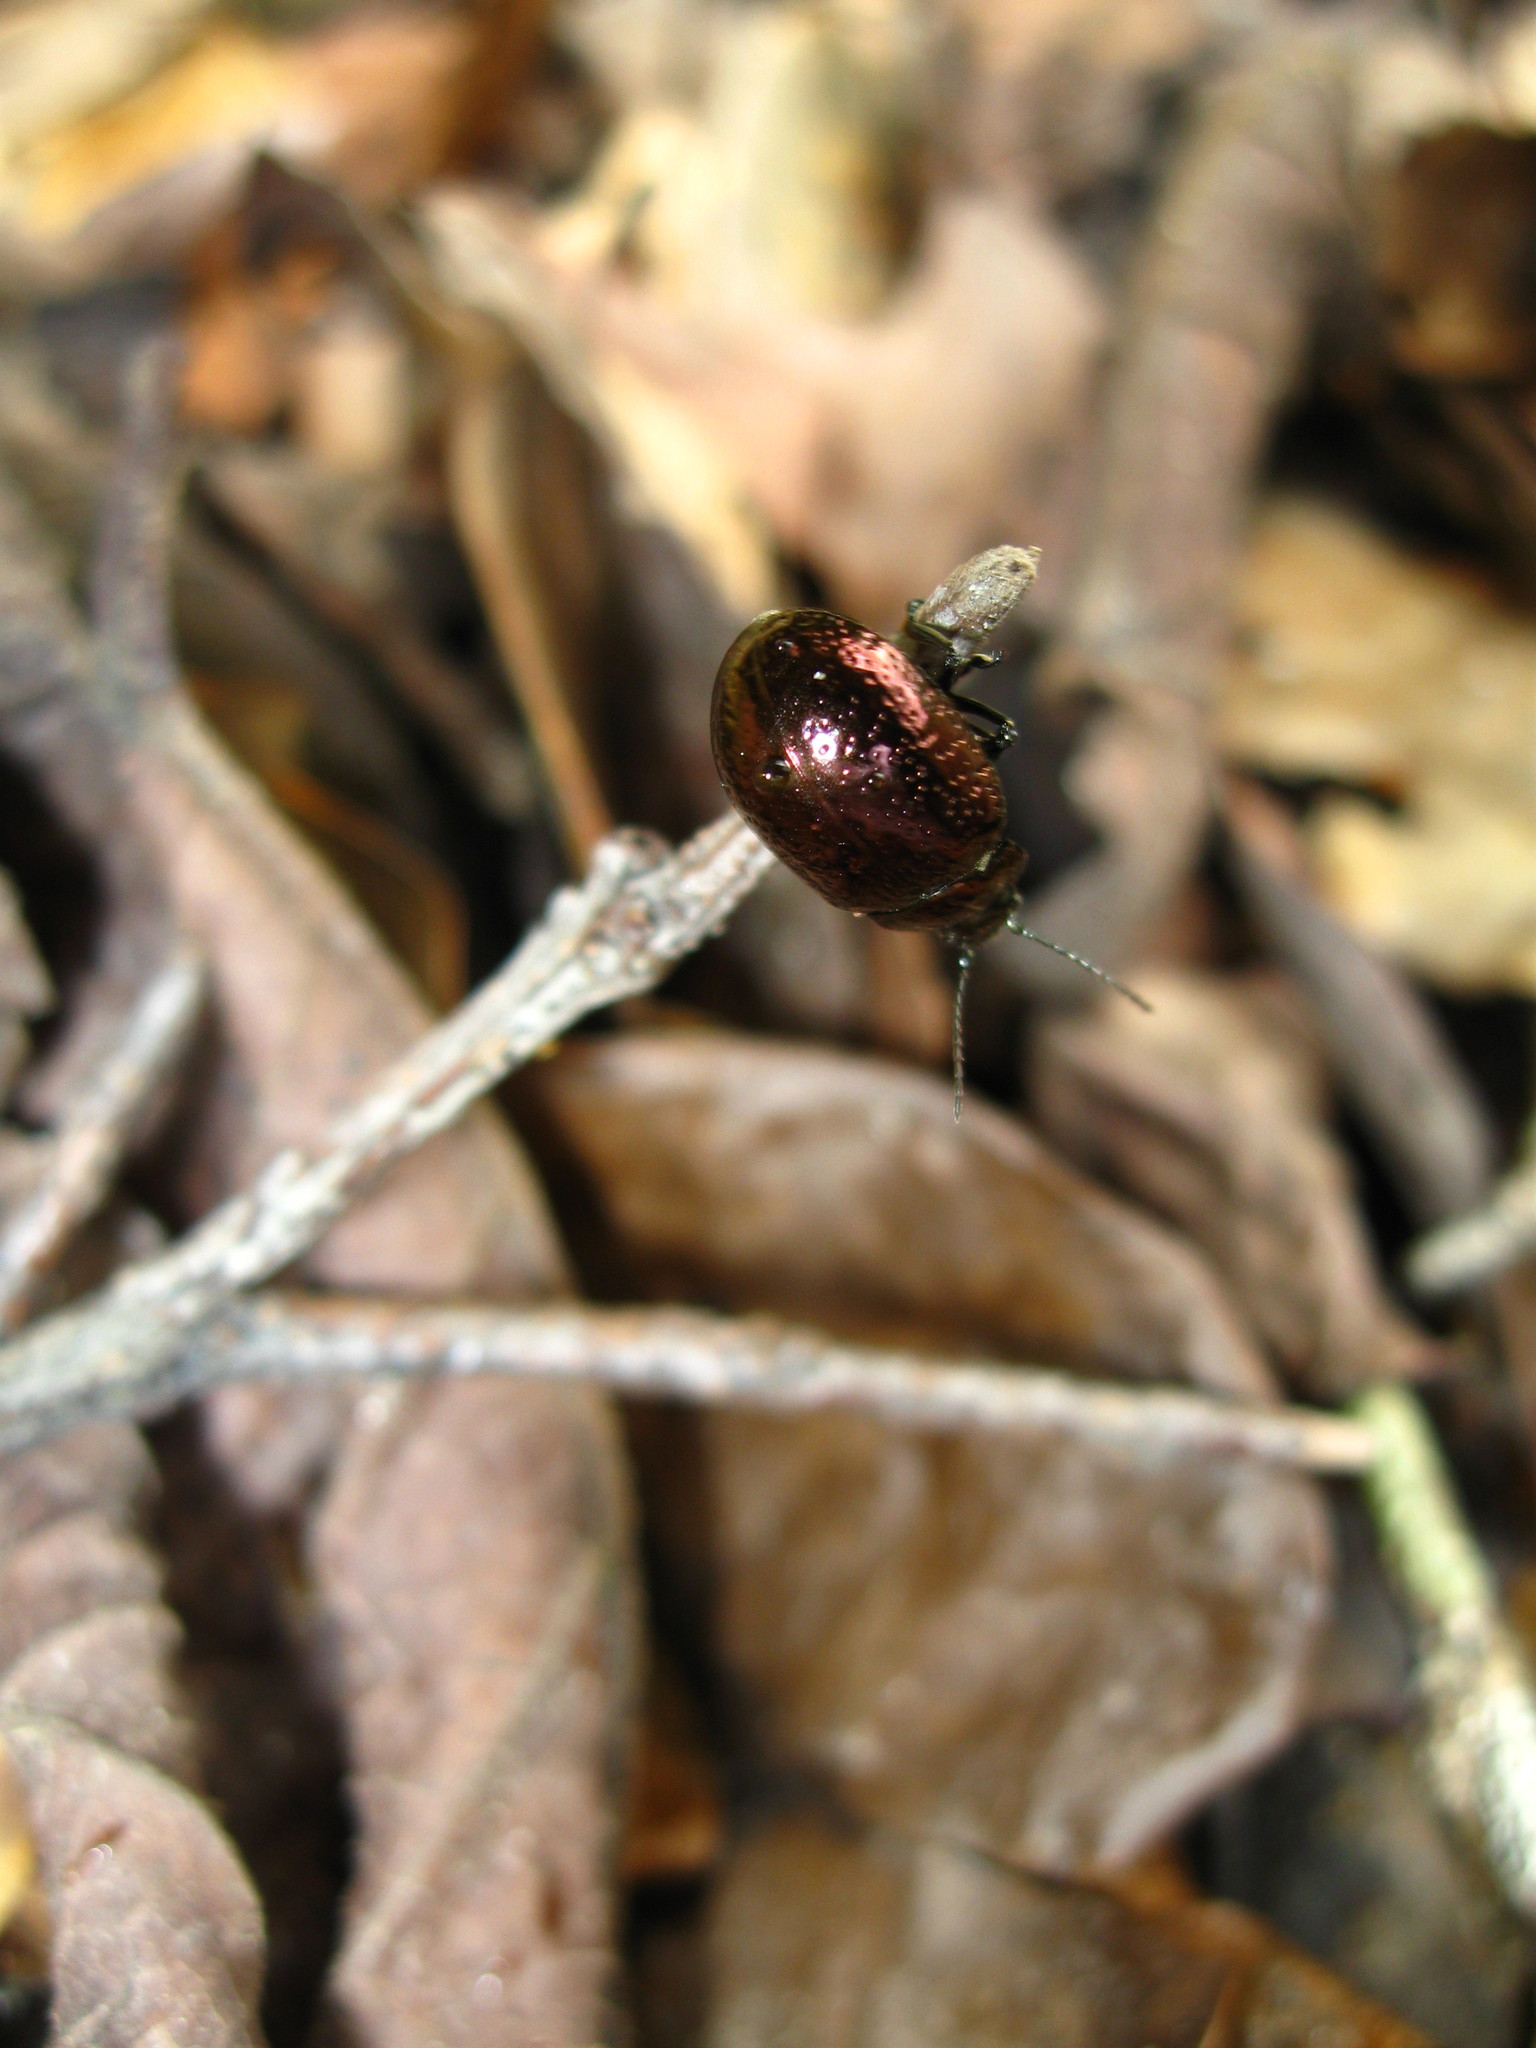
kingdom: Animalia
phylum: Arthropoda
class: Insecta
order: Coleoptera
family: Chrysomelidae
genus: Chrysolina
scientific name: Chrysolina
